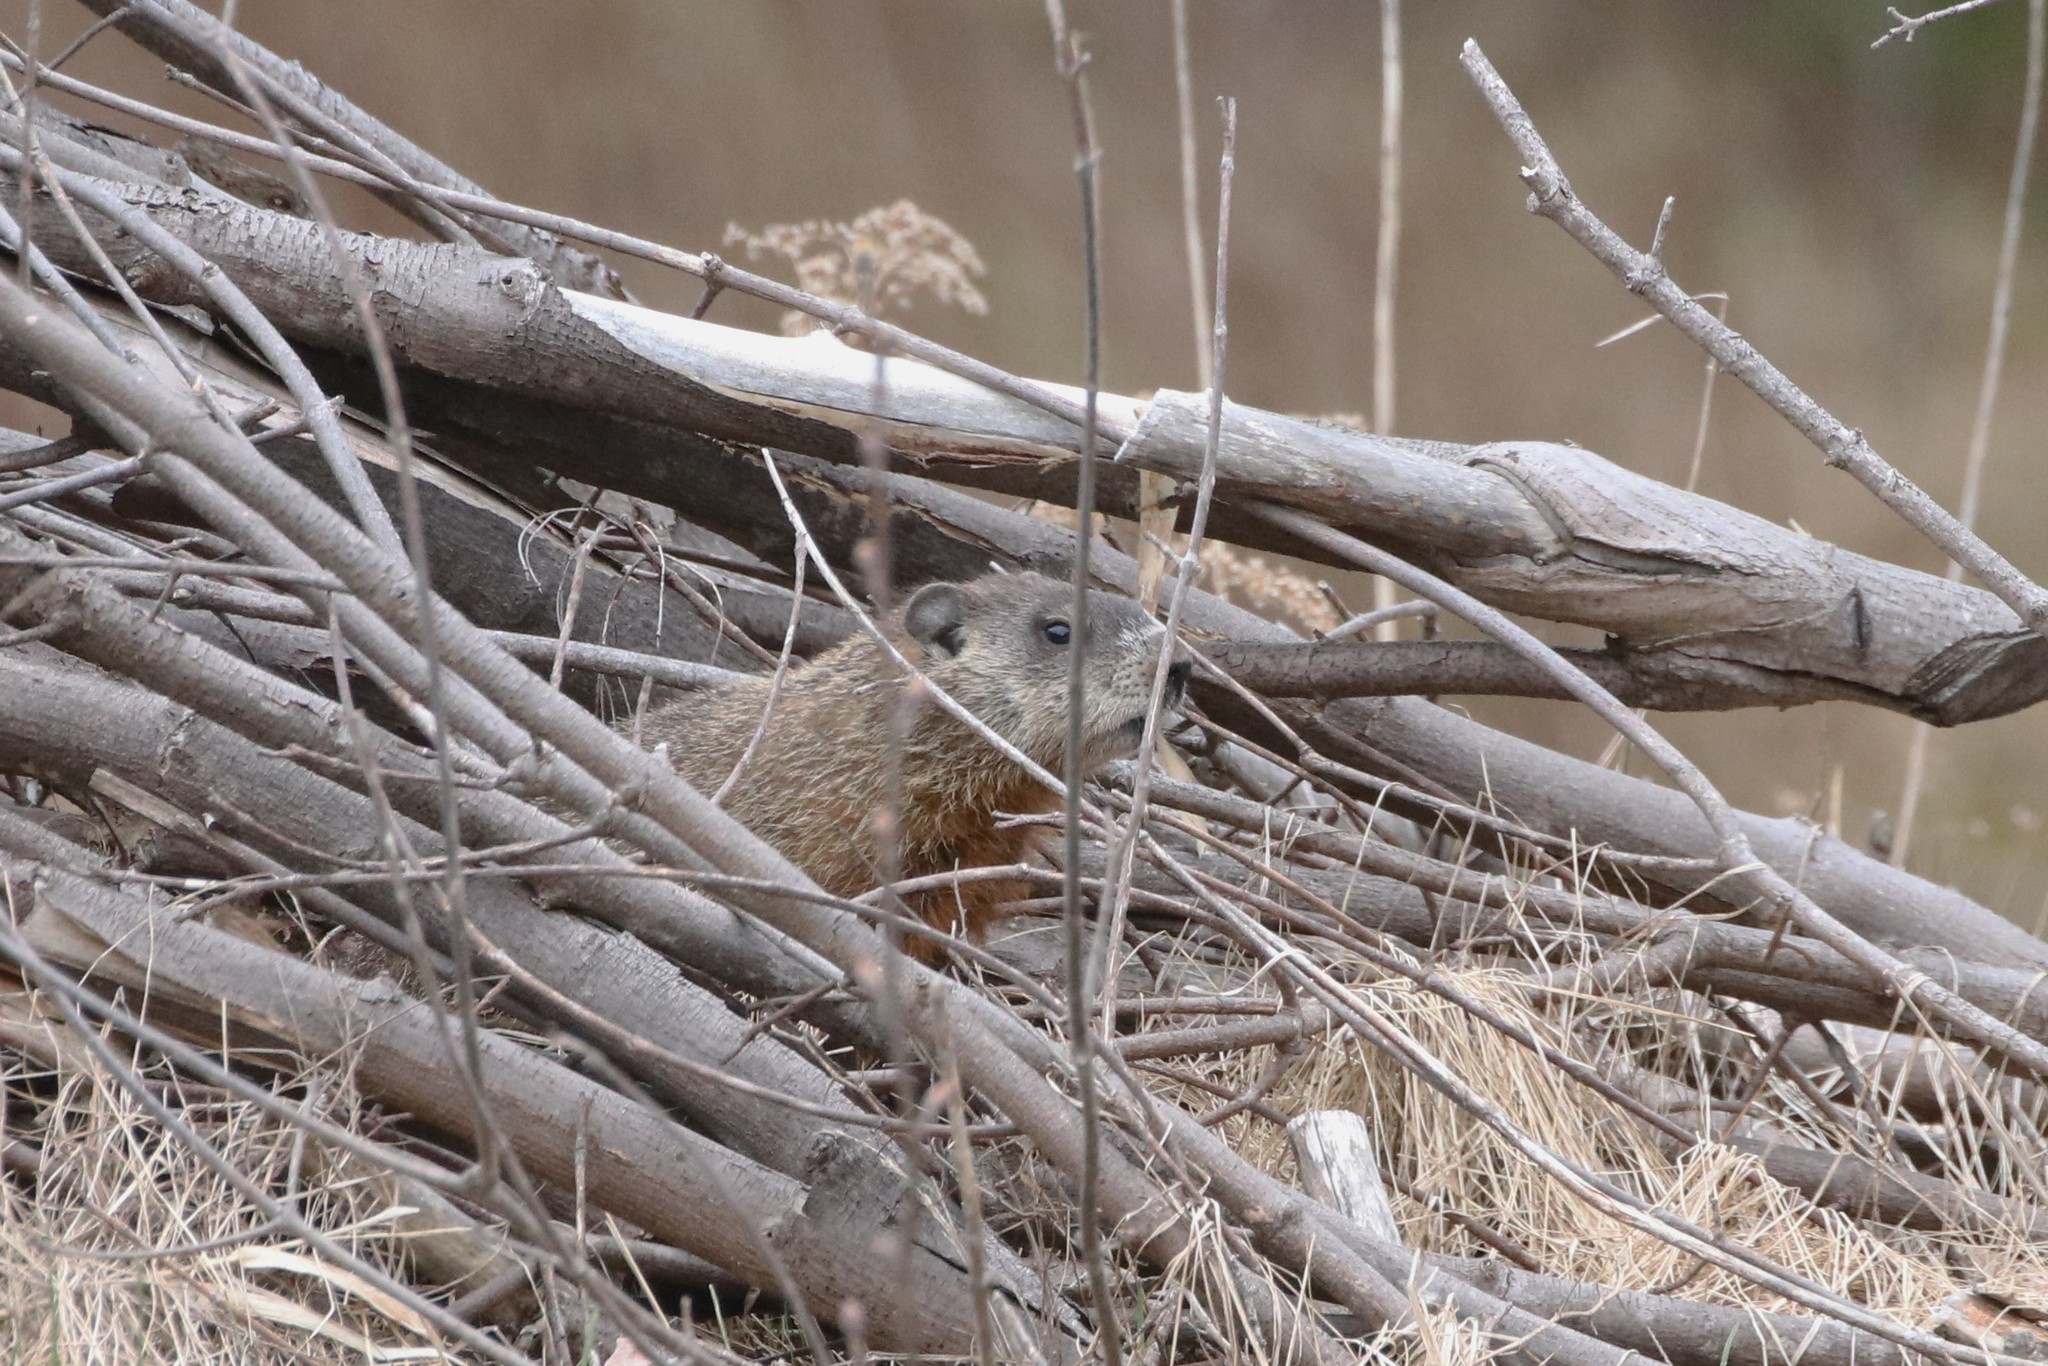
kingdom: Animalia
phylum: Chordata
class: Mammalia
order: Rodentia
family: Sciuridae
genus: Marmota
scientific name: Marmota monax
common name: Groundhog
